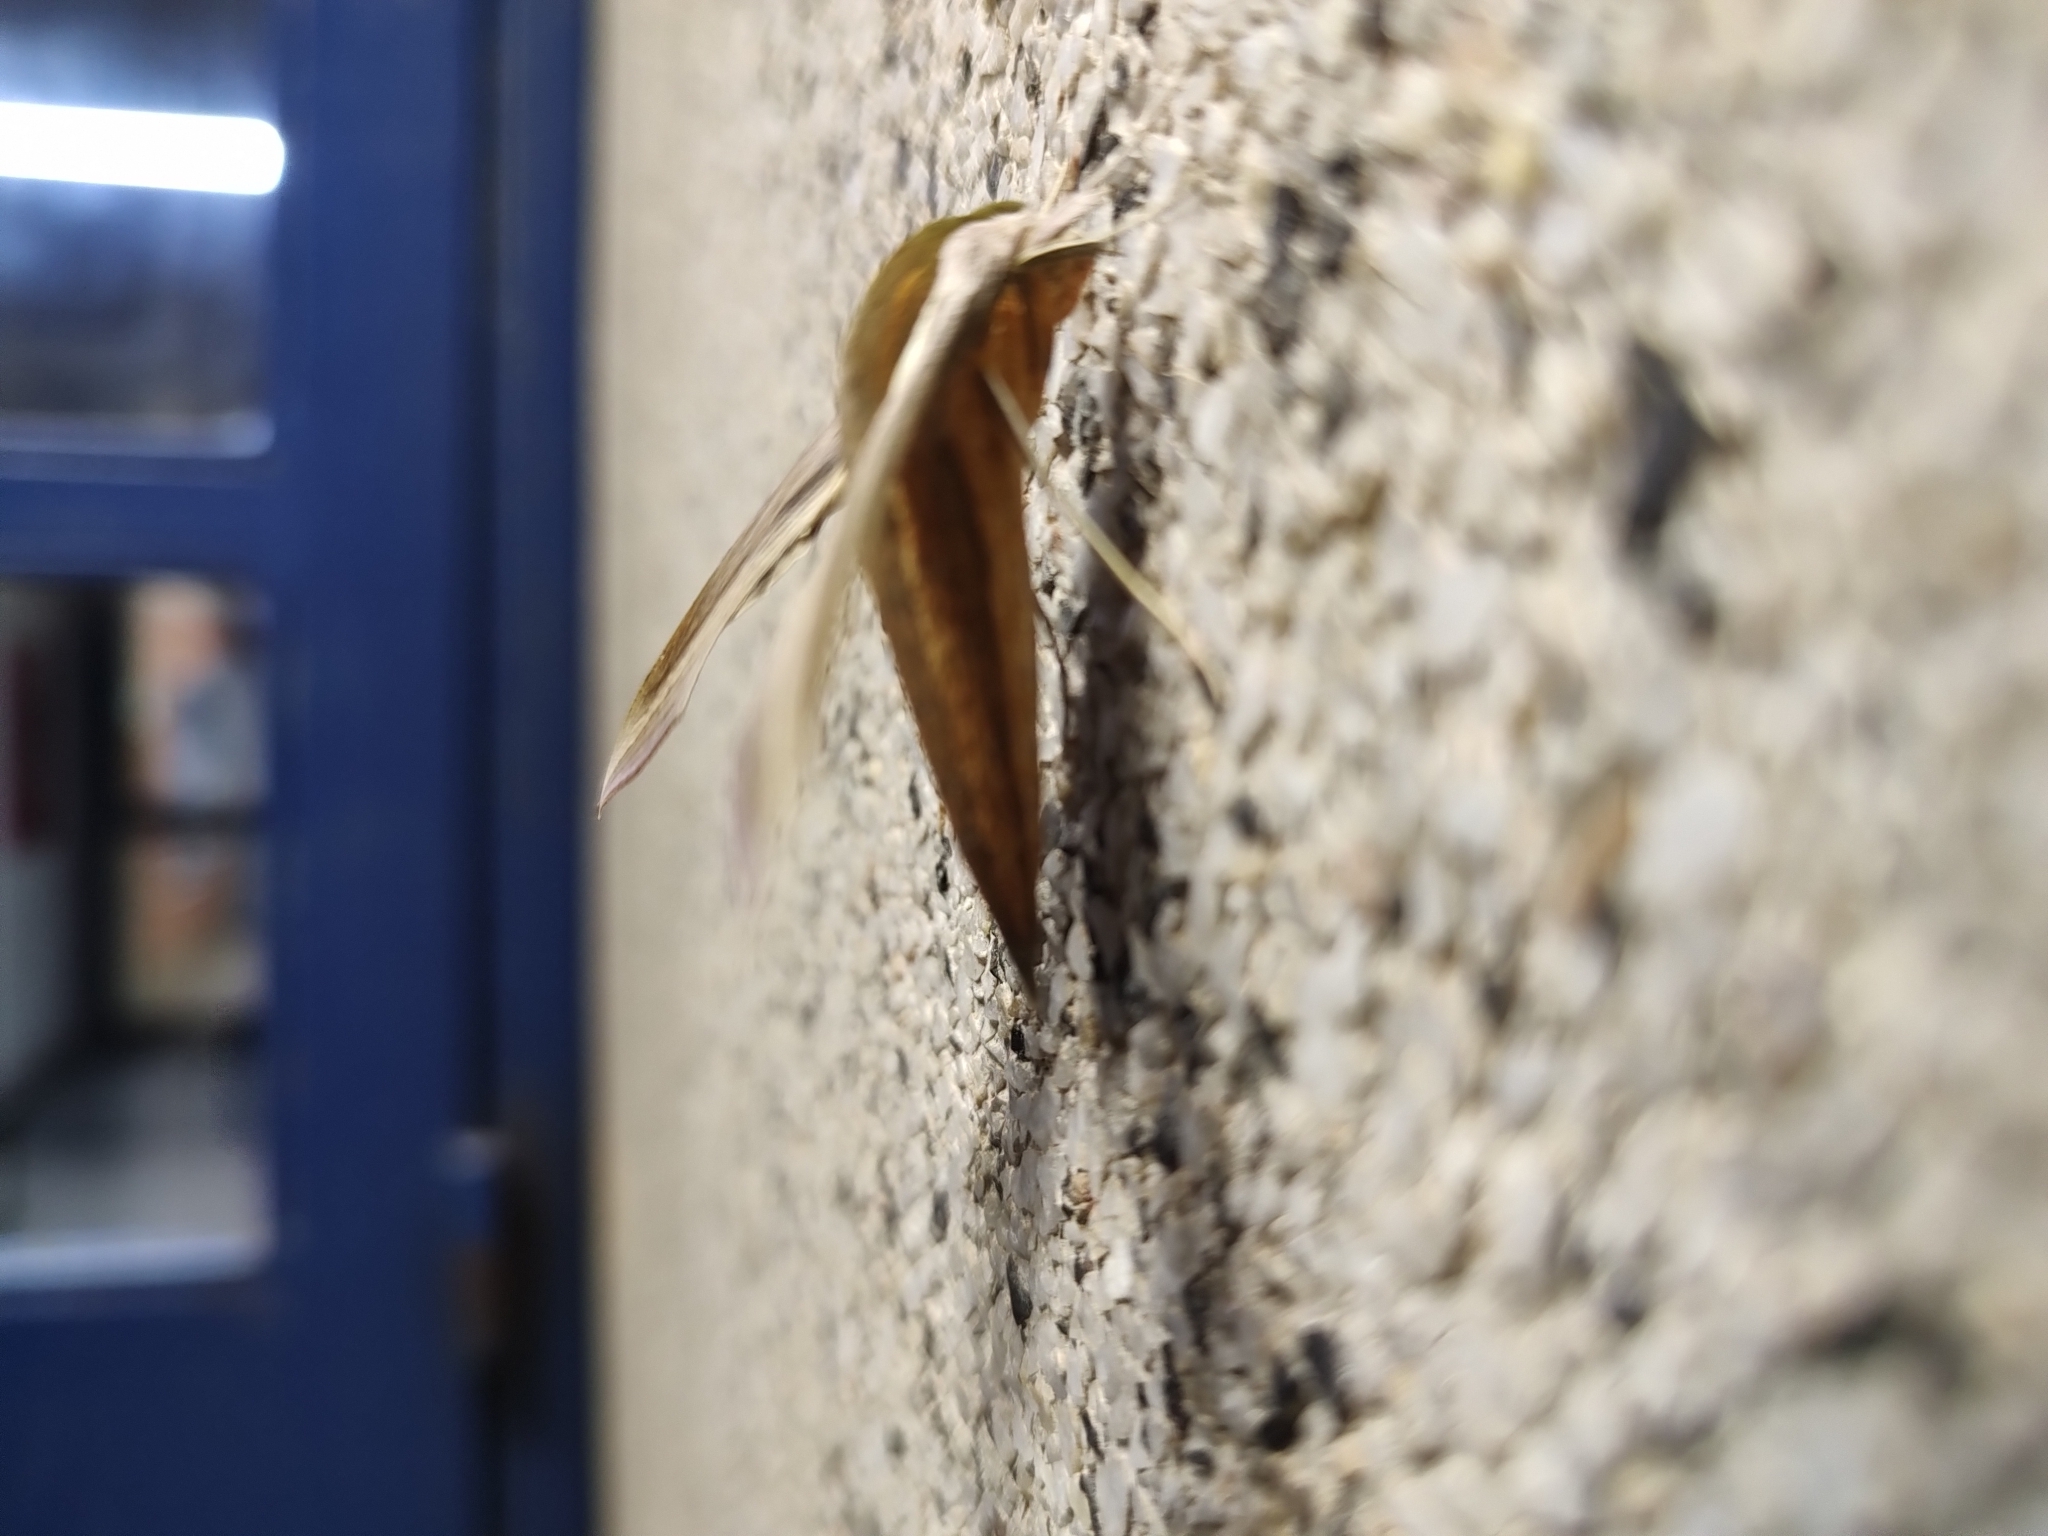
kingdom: Animalia
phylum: Arthropoda
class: Insecta
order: Lepidoptera
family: Sphingidae
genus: Xylophanes
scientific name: Xylophanes tersa
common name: Tersa sphinx
